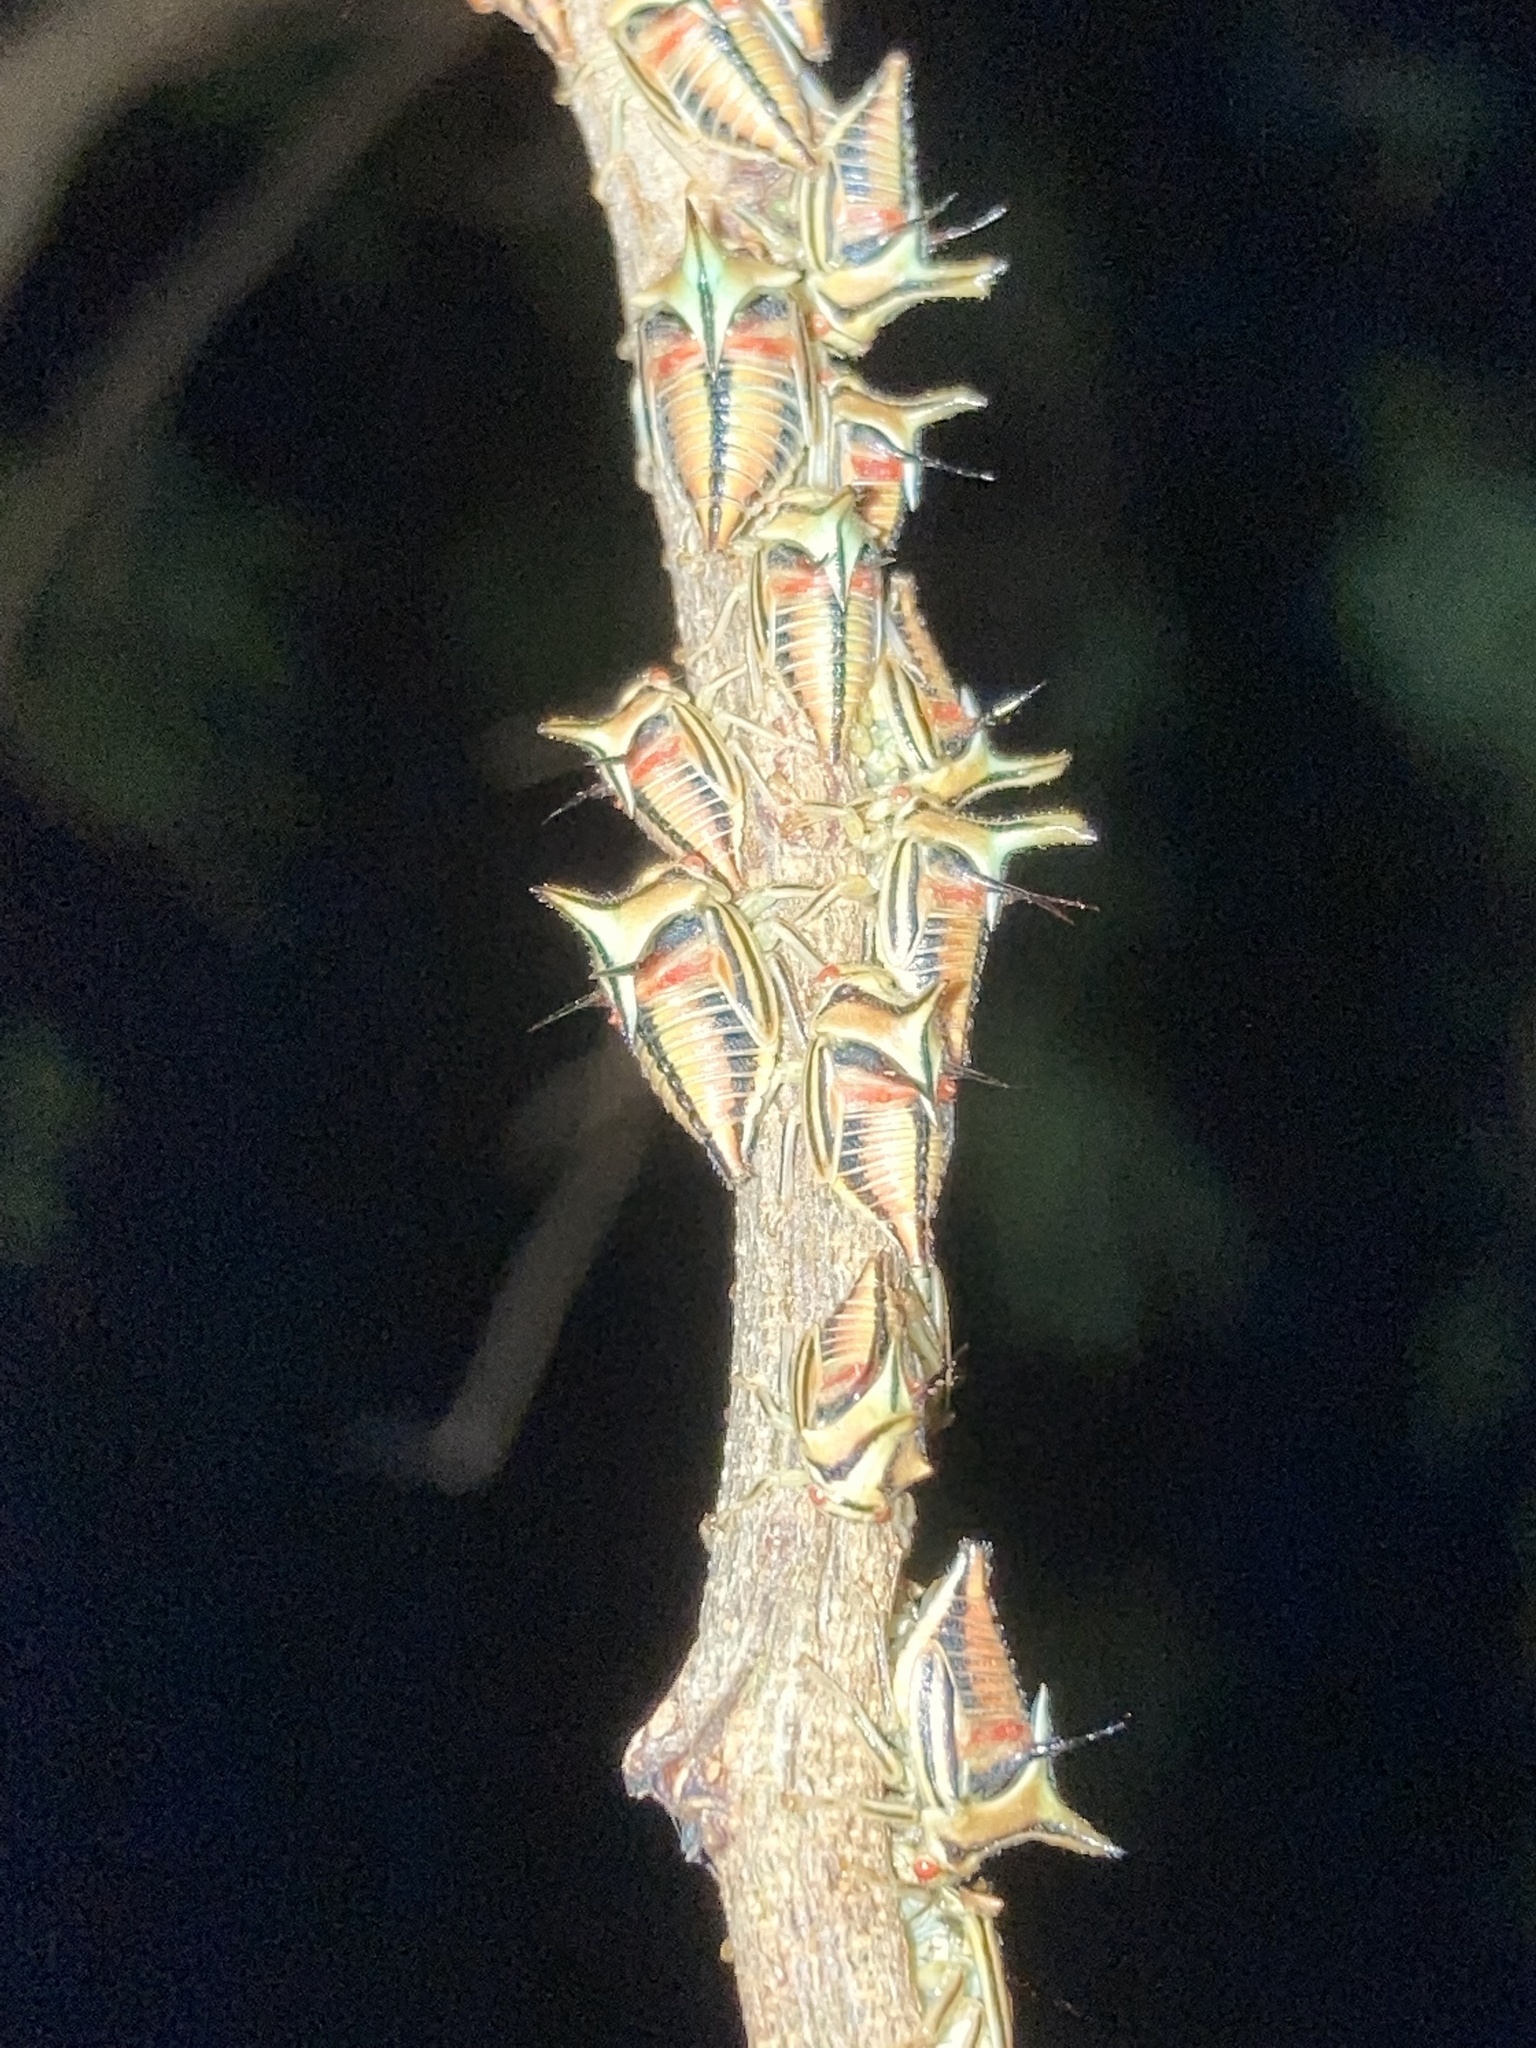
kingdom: Animalia
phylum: Arthropoda
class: Insecta
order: Hemiptera
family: Membracidae
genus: Umbonia
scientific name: Umbonia crassicornis
